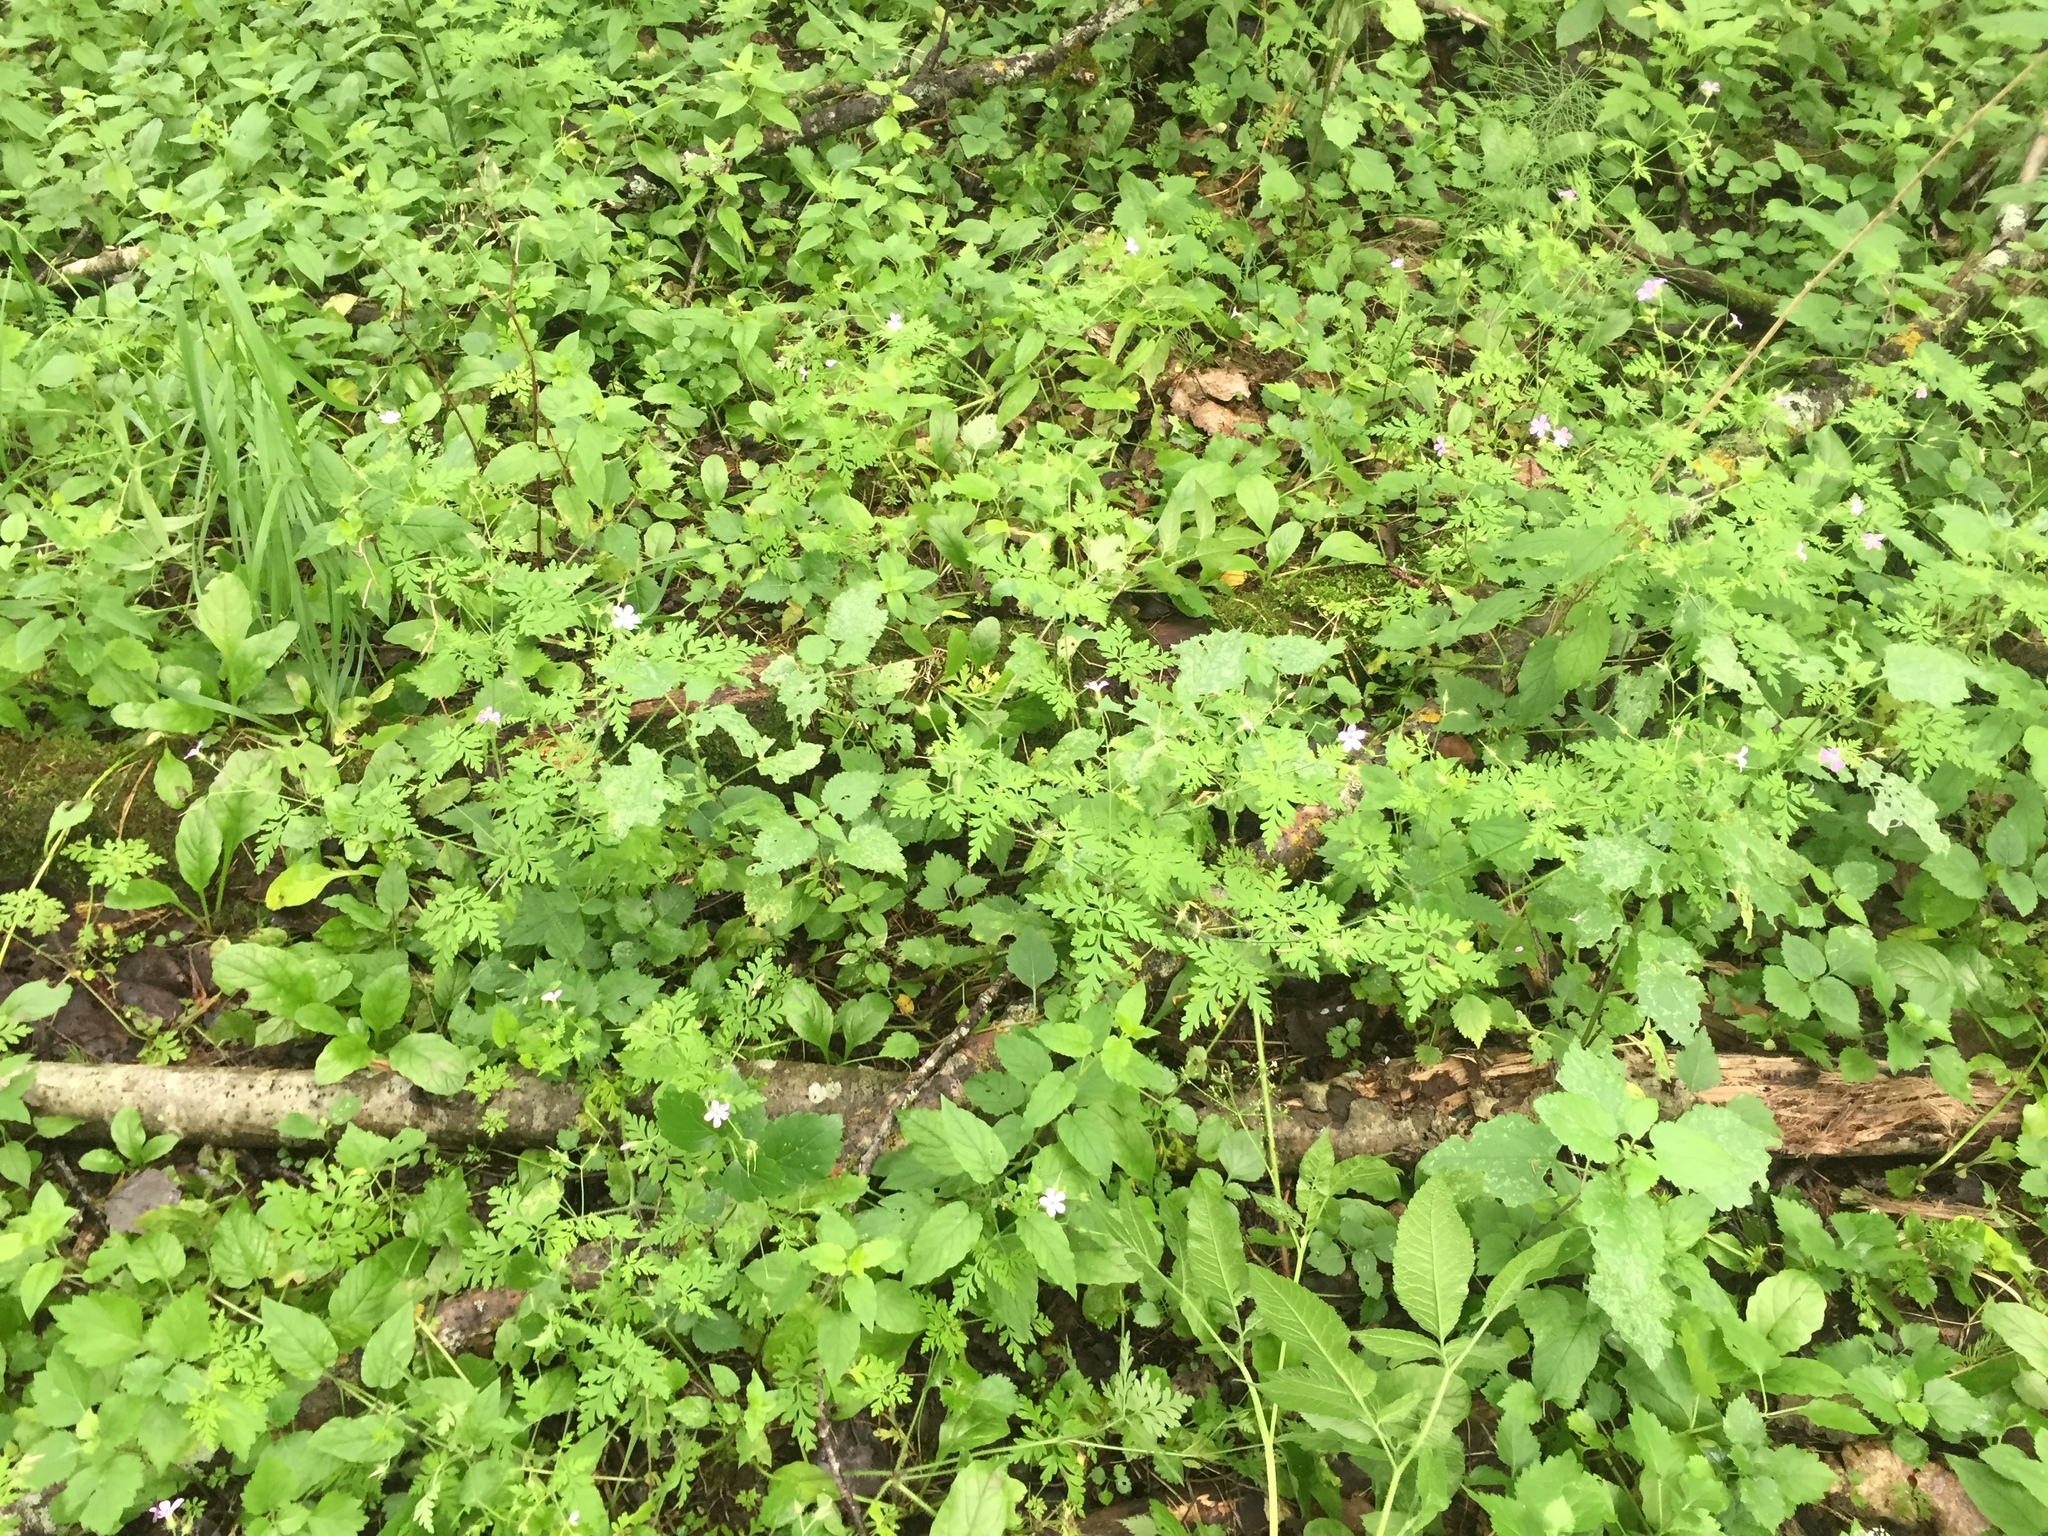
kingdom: Plantae
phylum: Tracheophyta
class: Magnoliopsida
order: Geraniales
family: Geraniaceae
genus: Geranium
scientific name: Geranium robertianum
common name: Herb-robert
